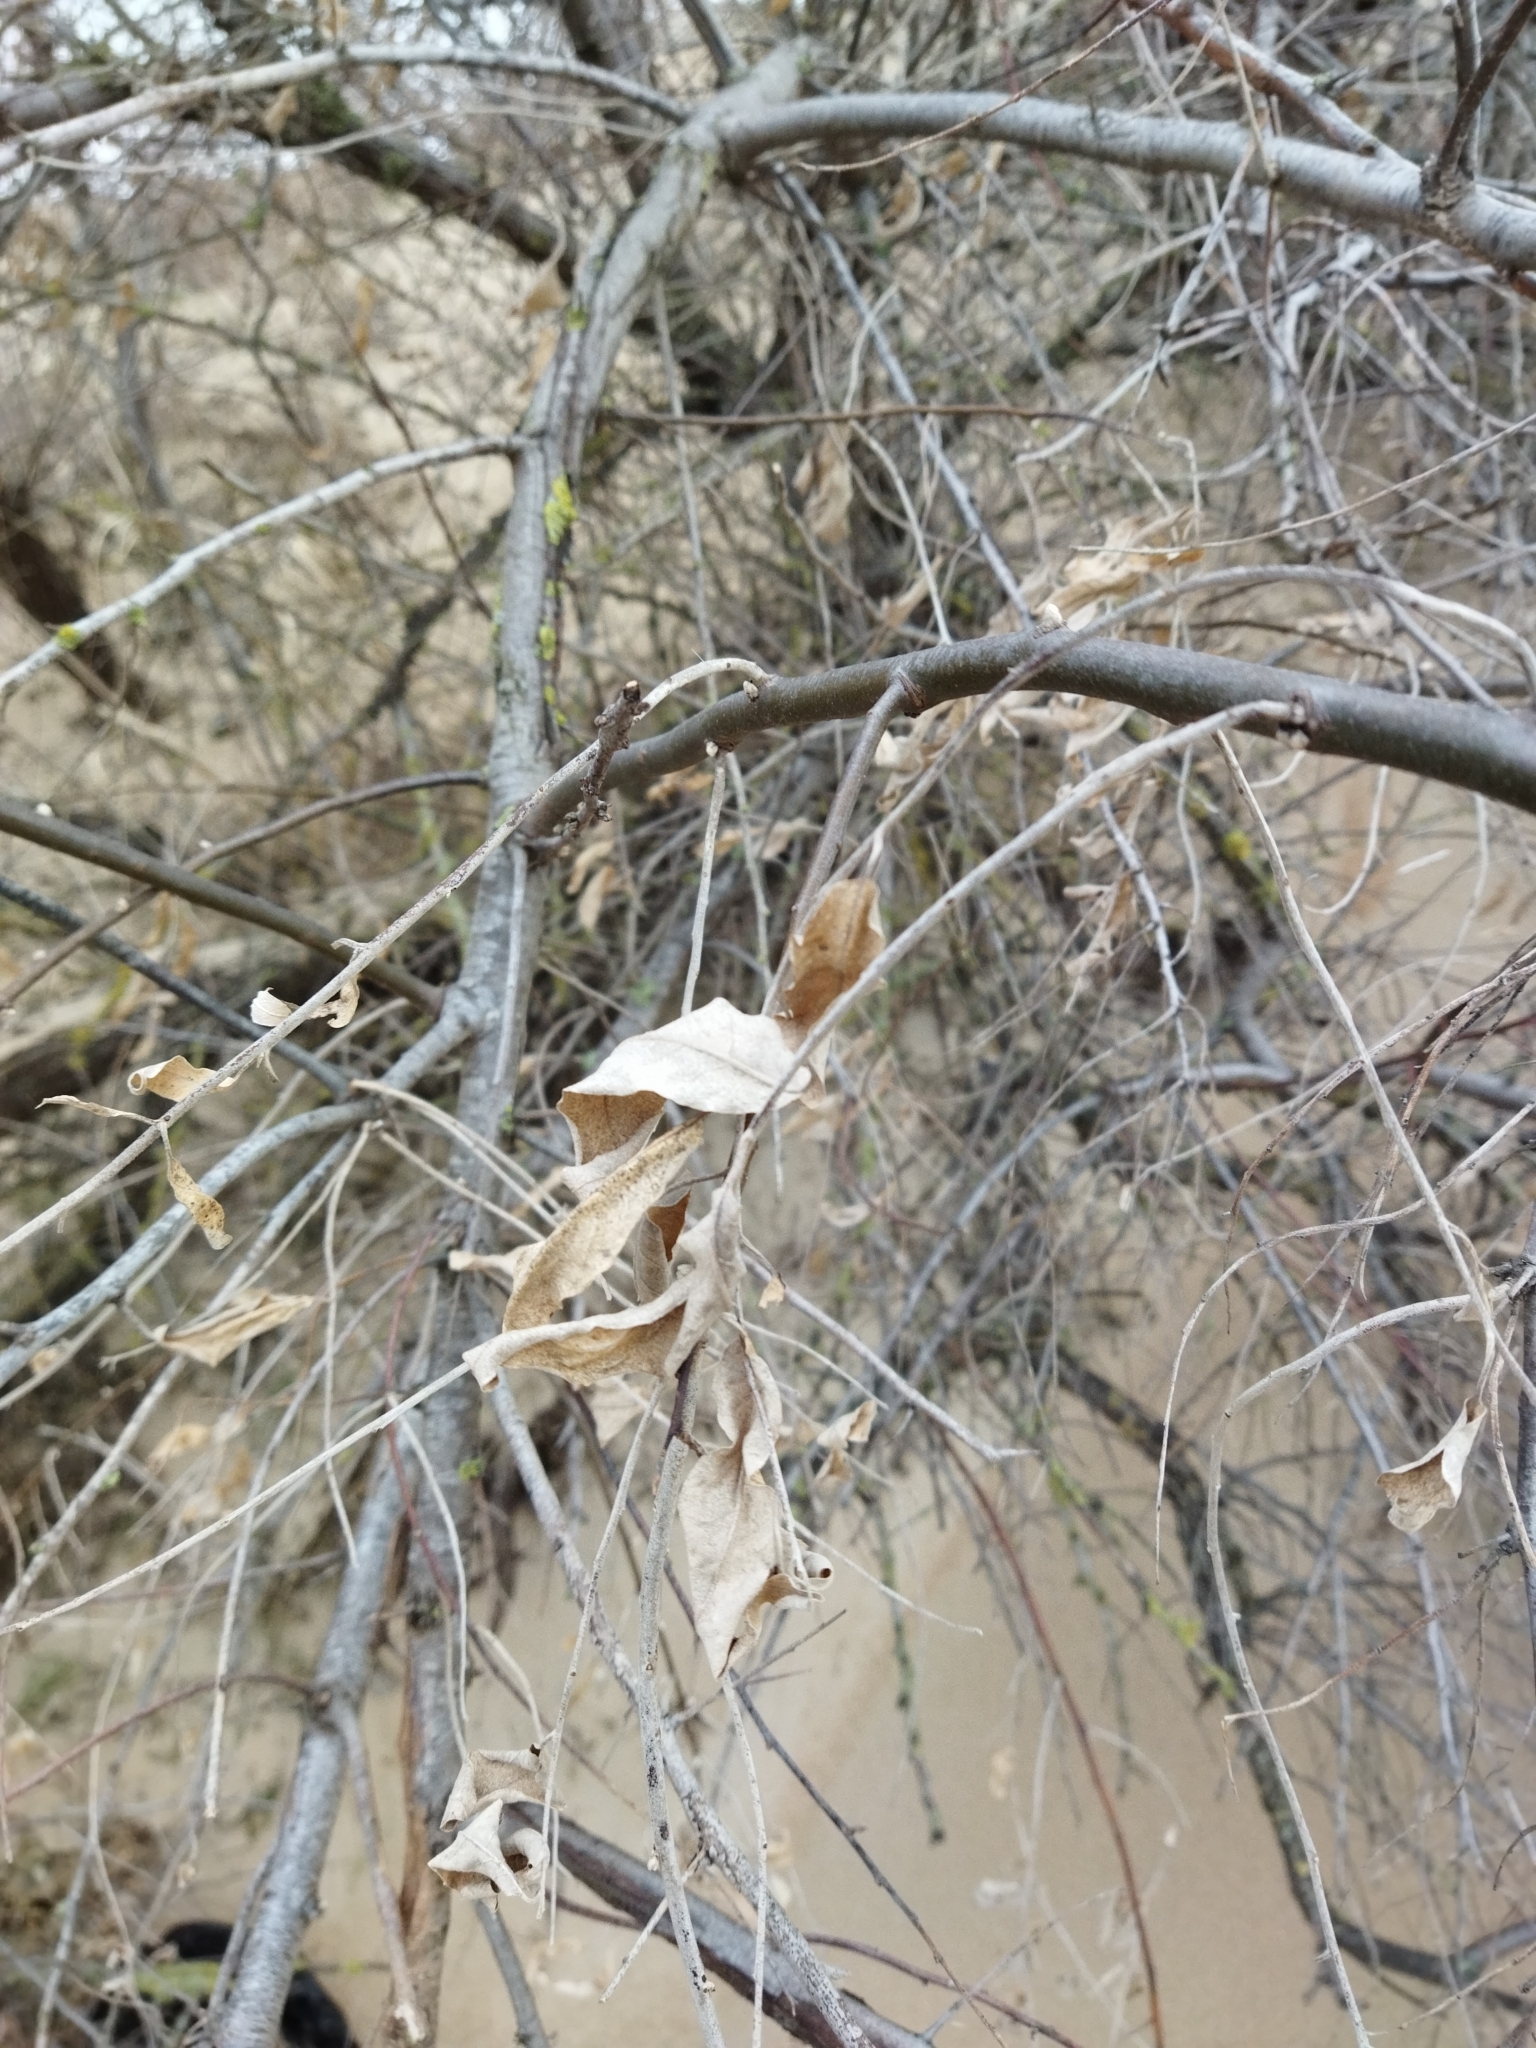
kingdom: Plantae
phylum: Tracheophyta
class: Magnoliopsida
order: Rosales
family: Elaeagnaceae
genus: Elaeagnus
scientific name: Elaeagnus angustifolia
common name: Russian olive
